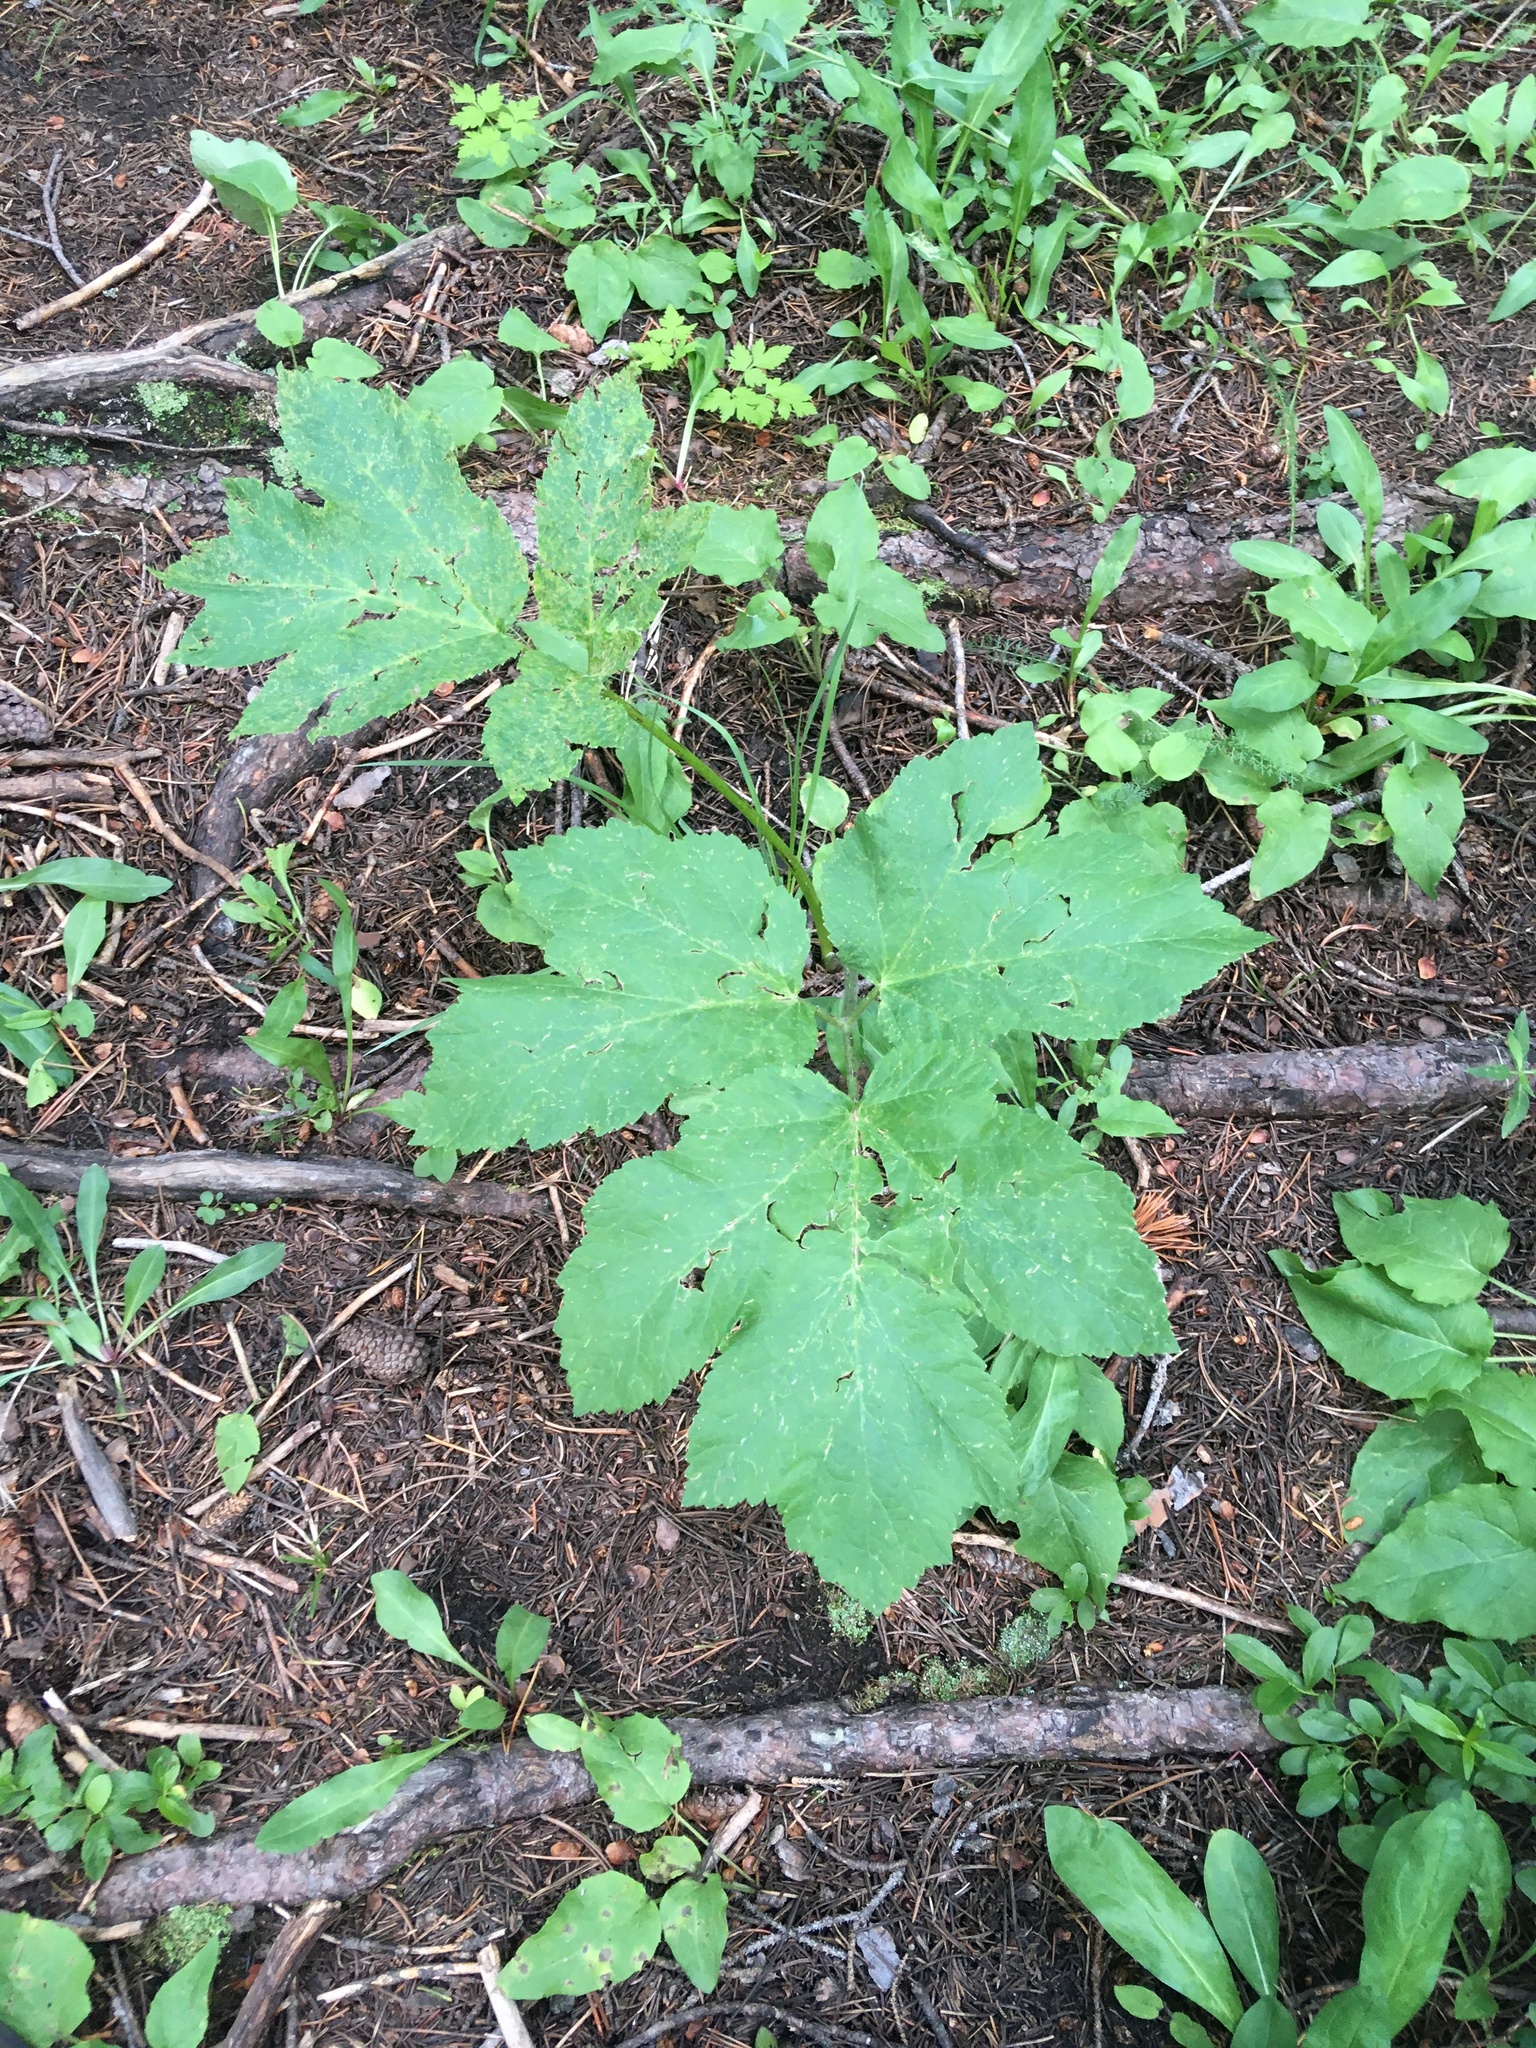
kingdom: Plantae
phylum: Tracheophyta
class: Magnoliopsida
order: Apiales
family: Apiaceae
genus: Heracleum
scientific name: Heracleum maximum
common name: American cow parsnip
